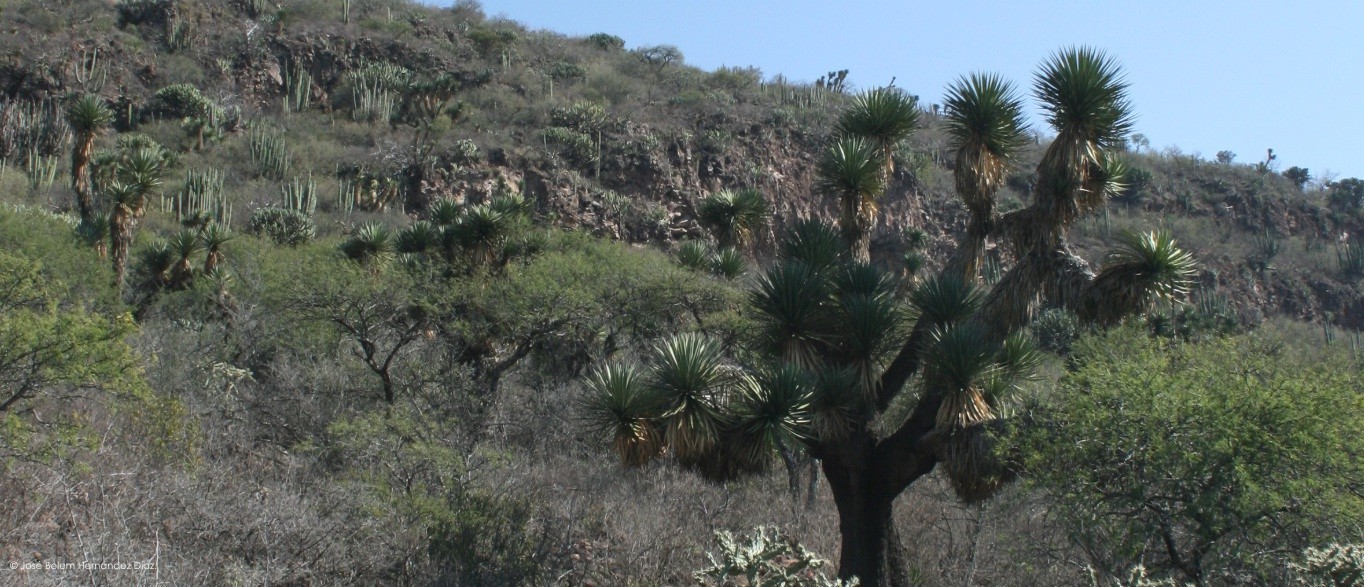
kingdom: Plantae
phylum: Tracheophyta
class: Liliopsida
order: Asparagales
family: Asparagaceae
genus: Yucca
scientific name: Yucca filifera
